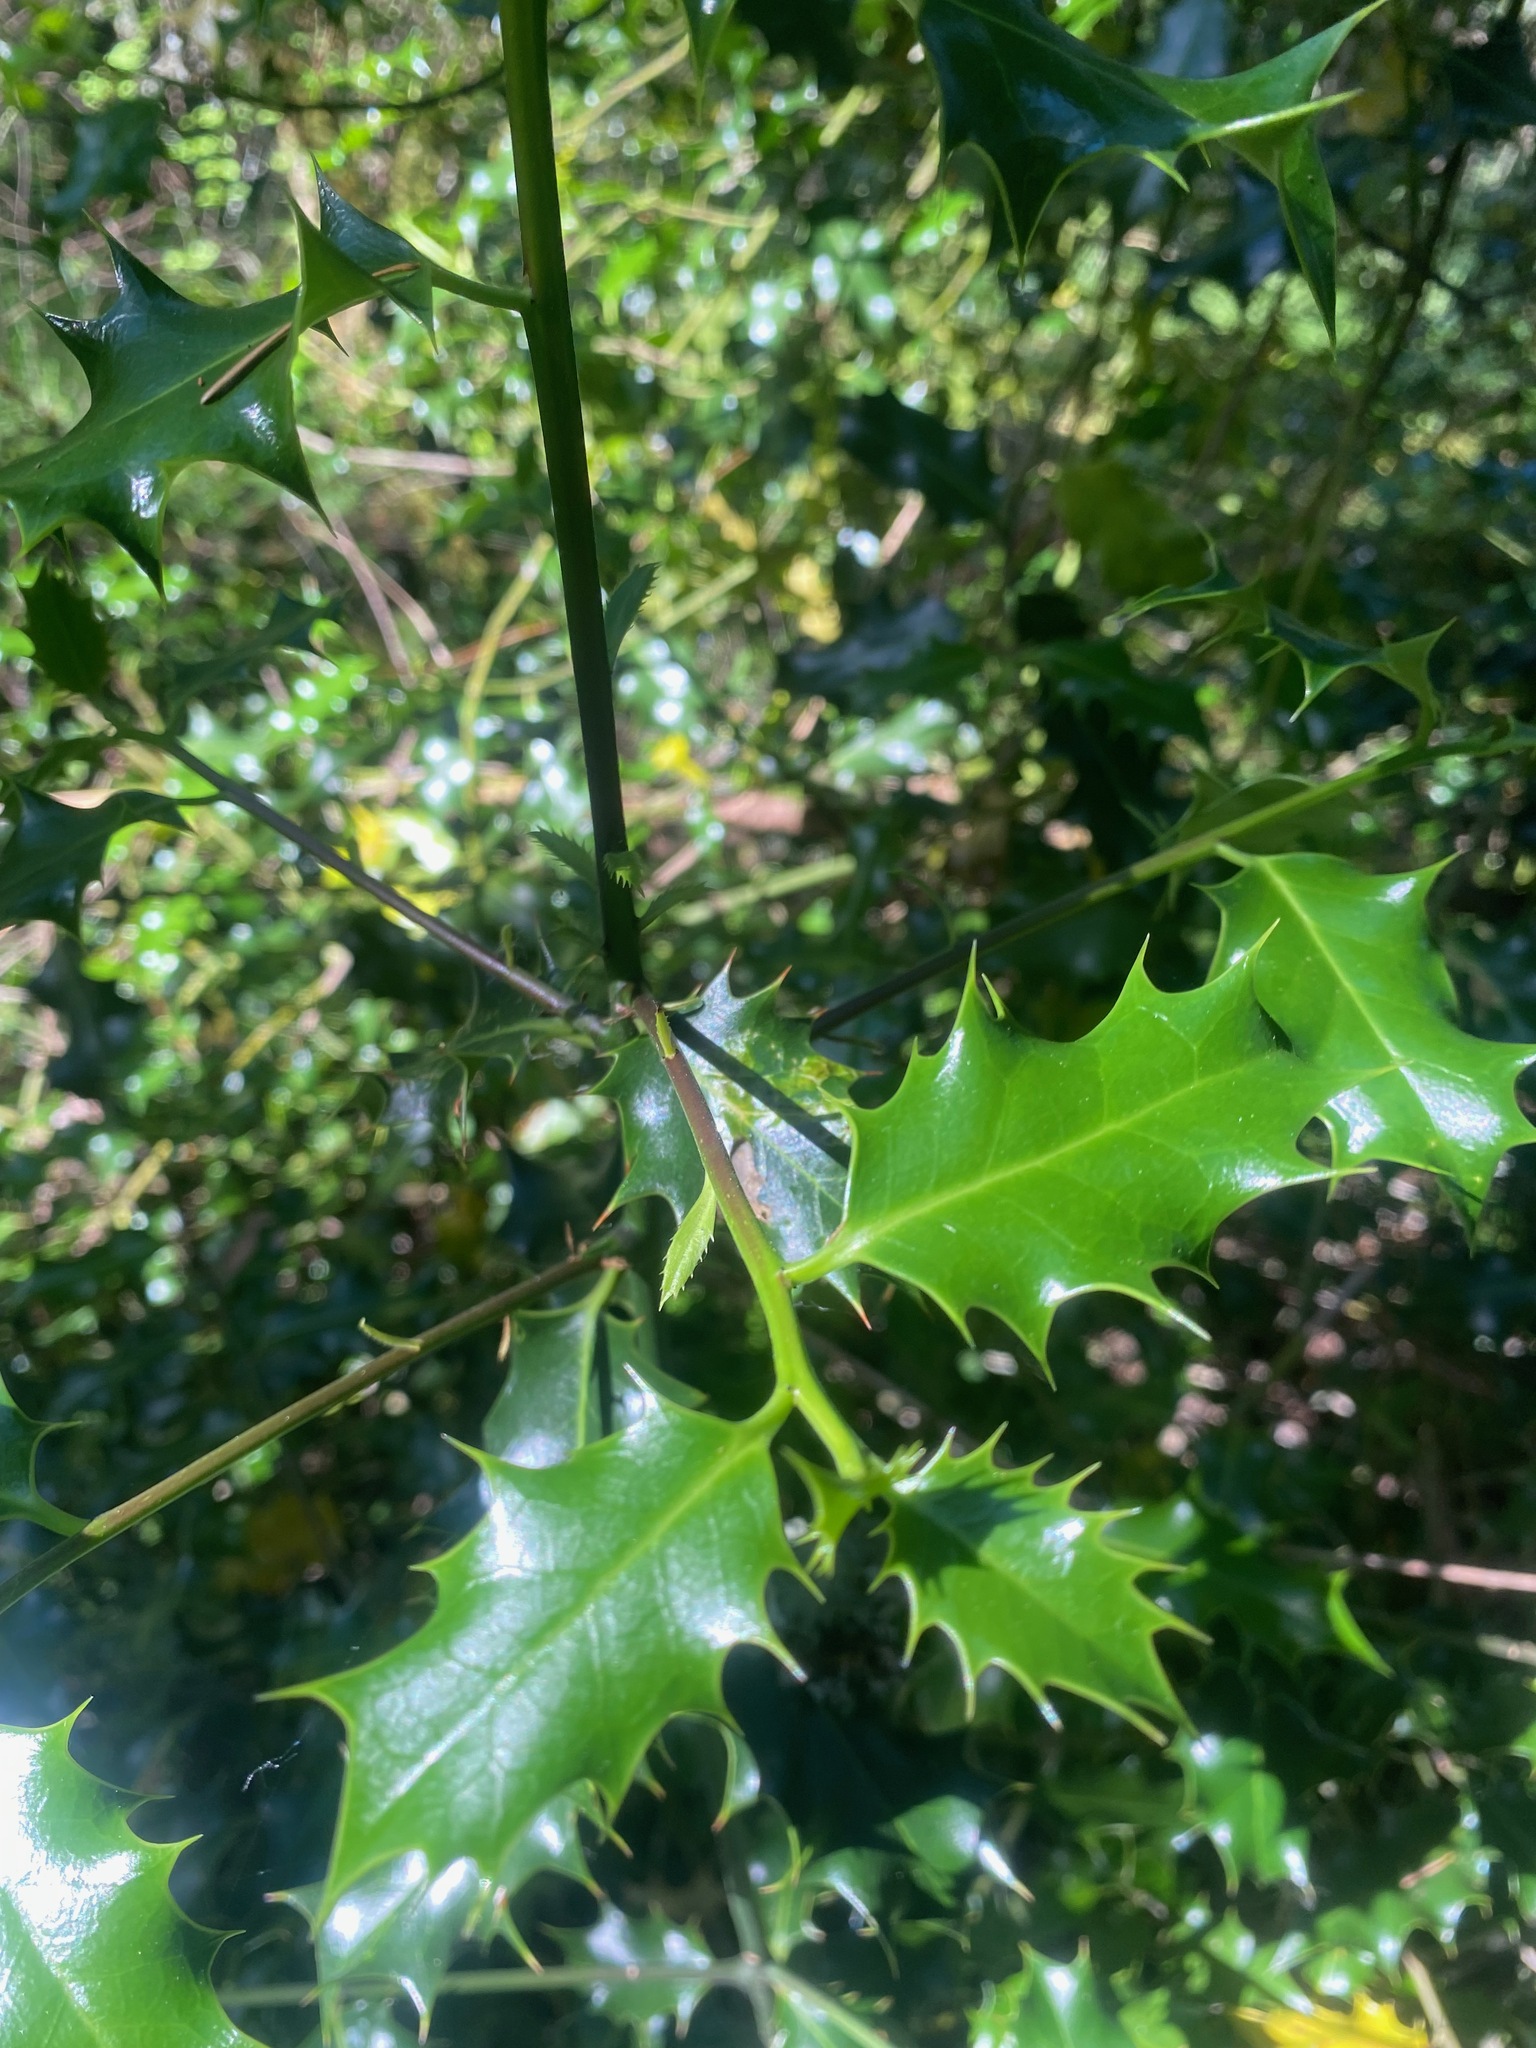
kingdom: Plantae
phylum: Tracheophyta
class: Magnoliopsida
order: Aquifoliales
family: Aquifoliaceae
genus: Ilex
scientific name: Ilex aquifolium
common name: English holly
